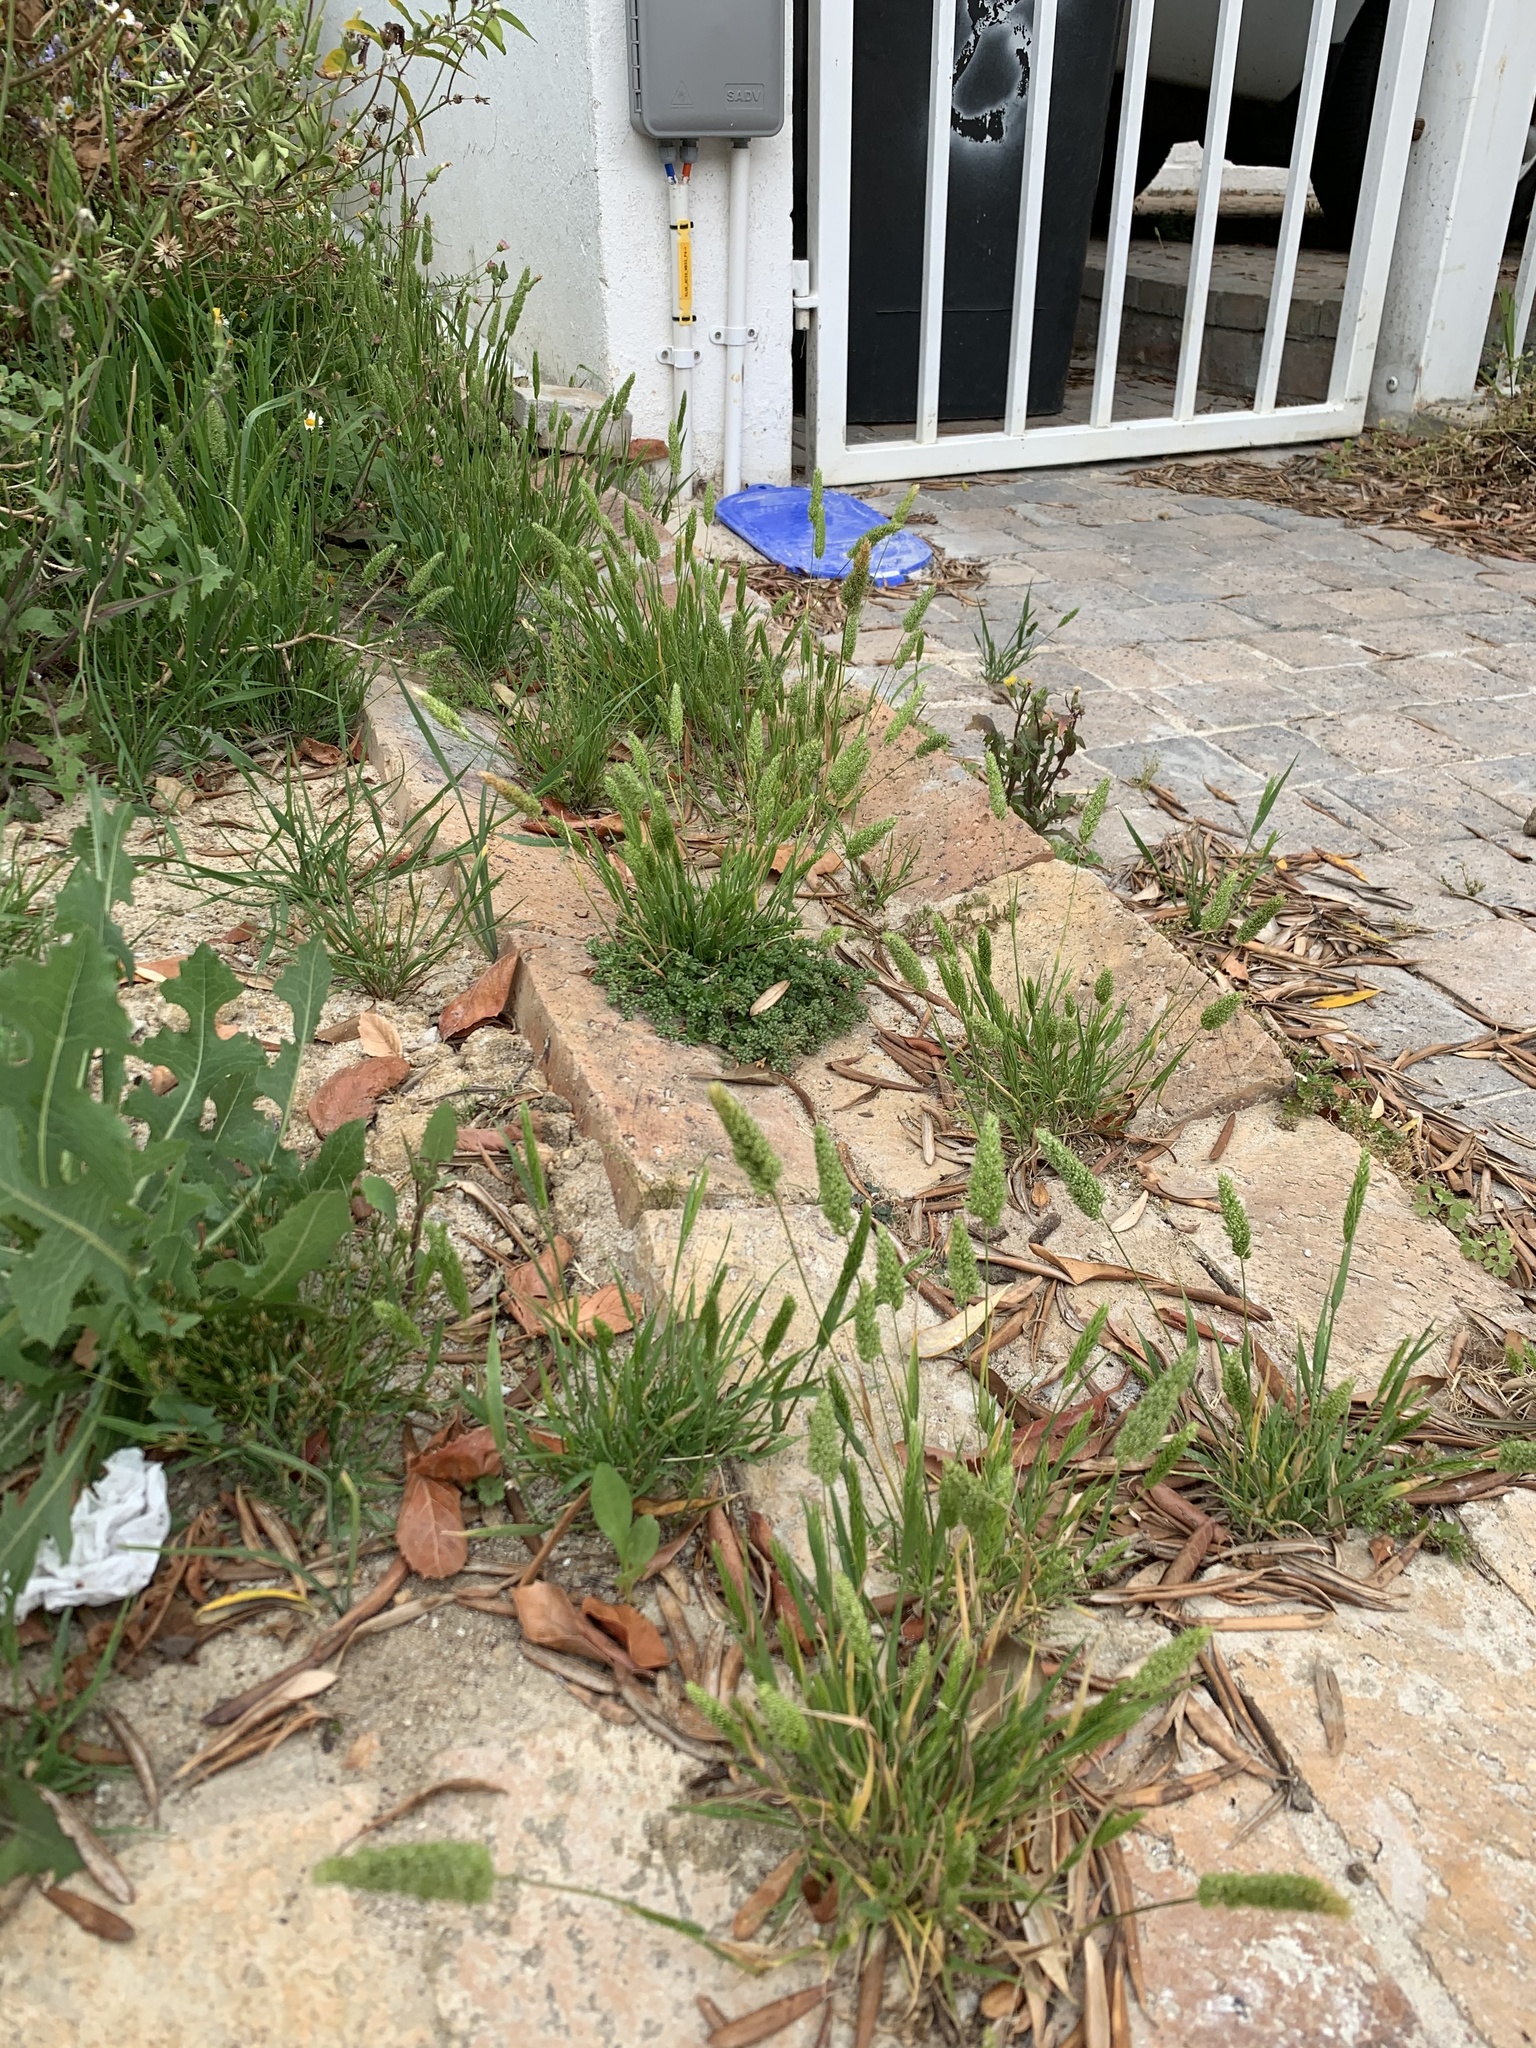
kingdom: Plantae
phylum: Tracheophyta
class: Liliopsida
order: Poales
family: Poaceae
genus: Rostraria
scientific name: Rostraria cristata
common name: Mediterranean hair-grass
